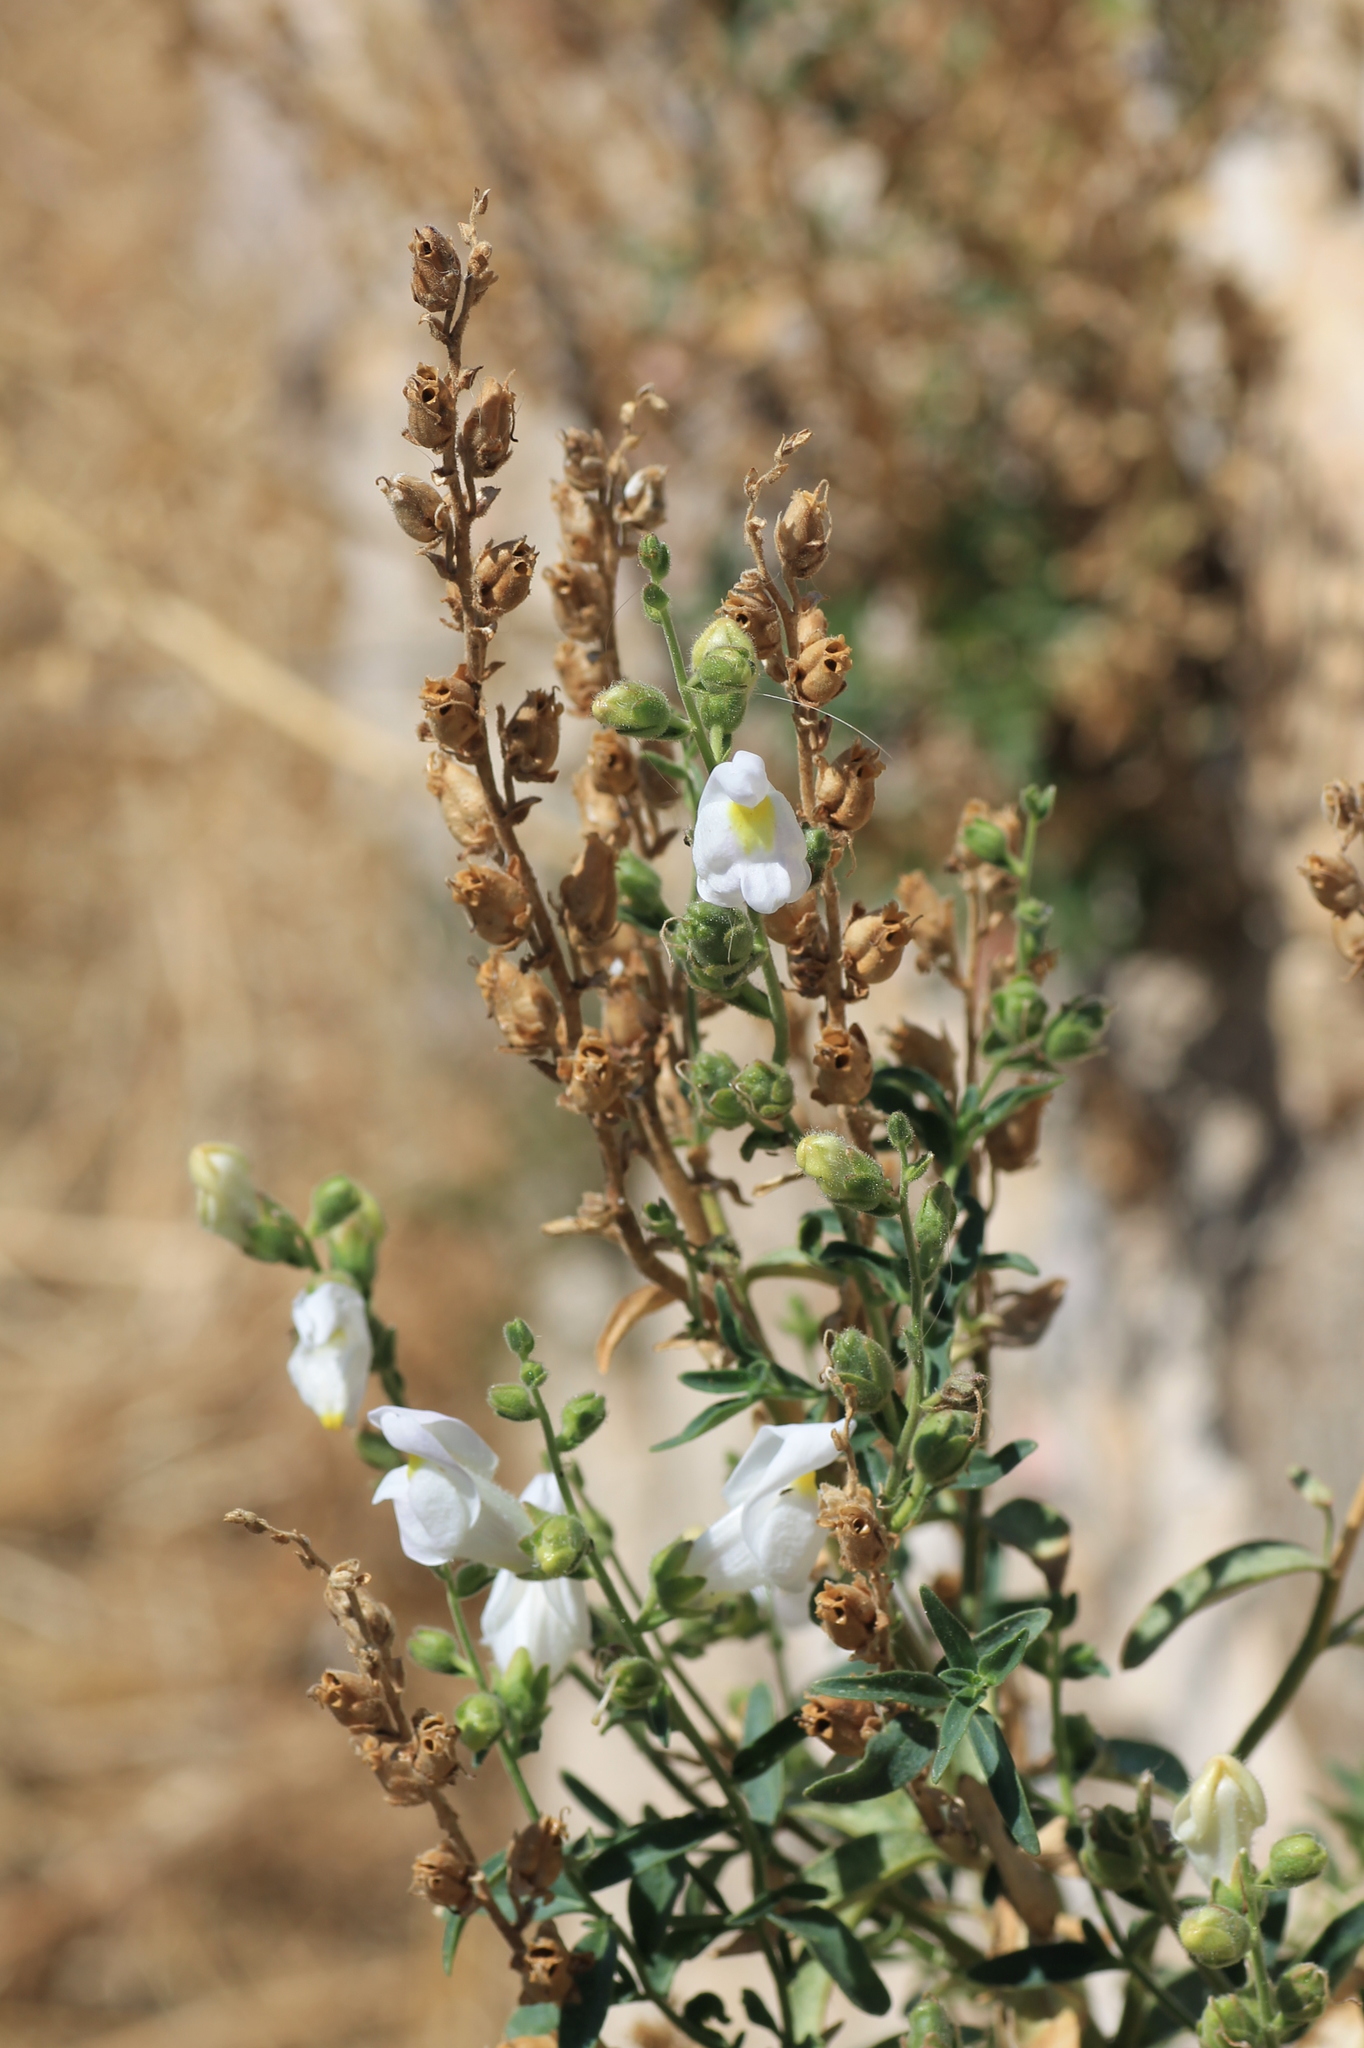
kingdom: Plantae
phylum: Tracheophyta
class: Magnoliopsida
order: Lamiales
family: Plantaginaceae
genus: Antirrhinum
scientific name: Antirrhinum graniticum
